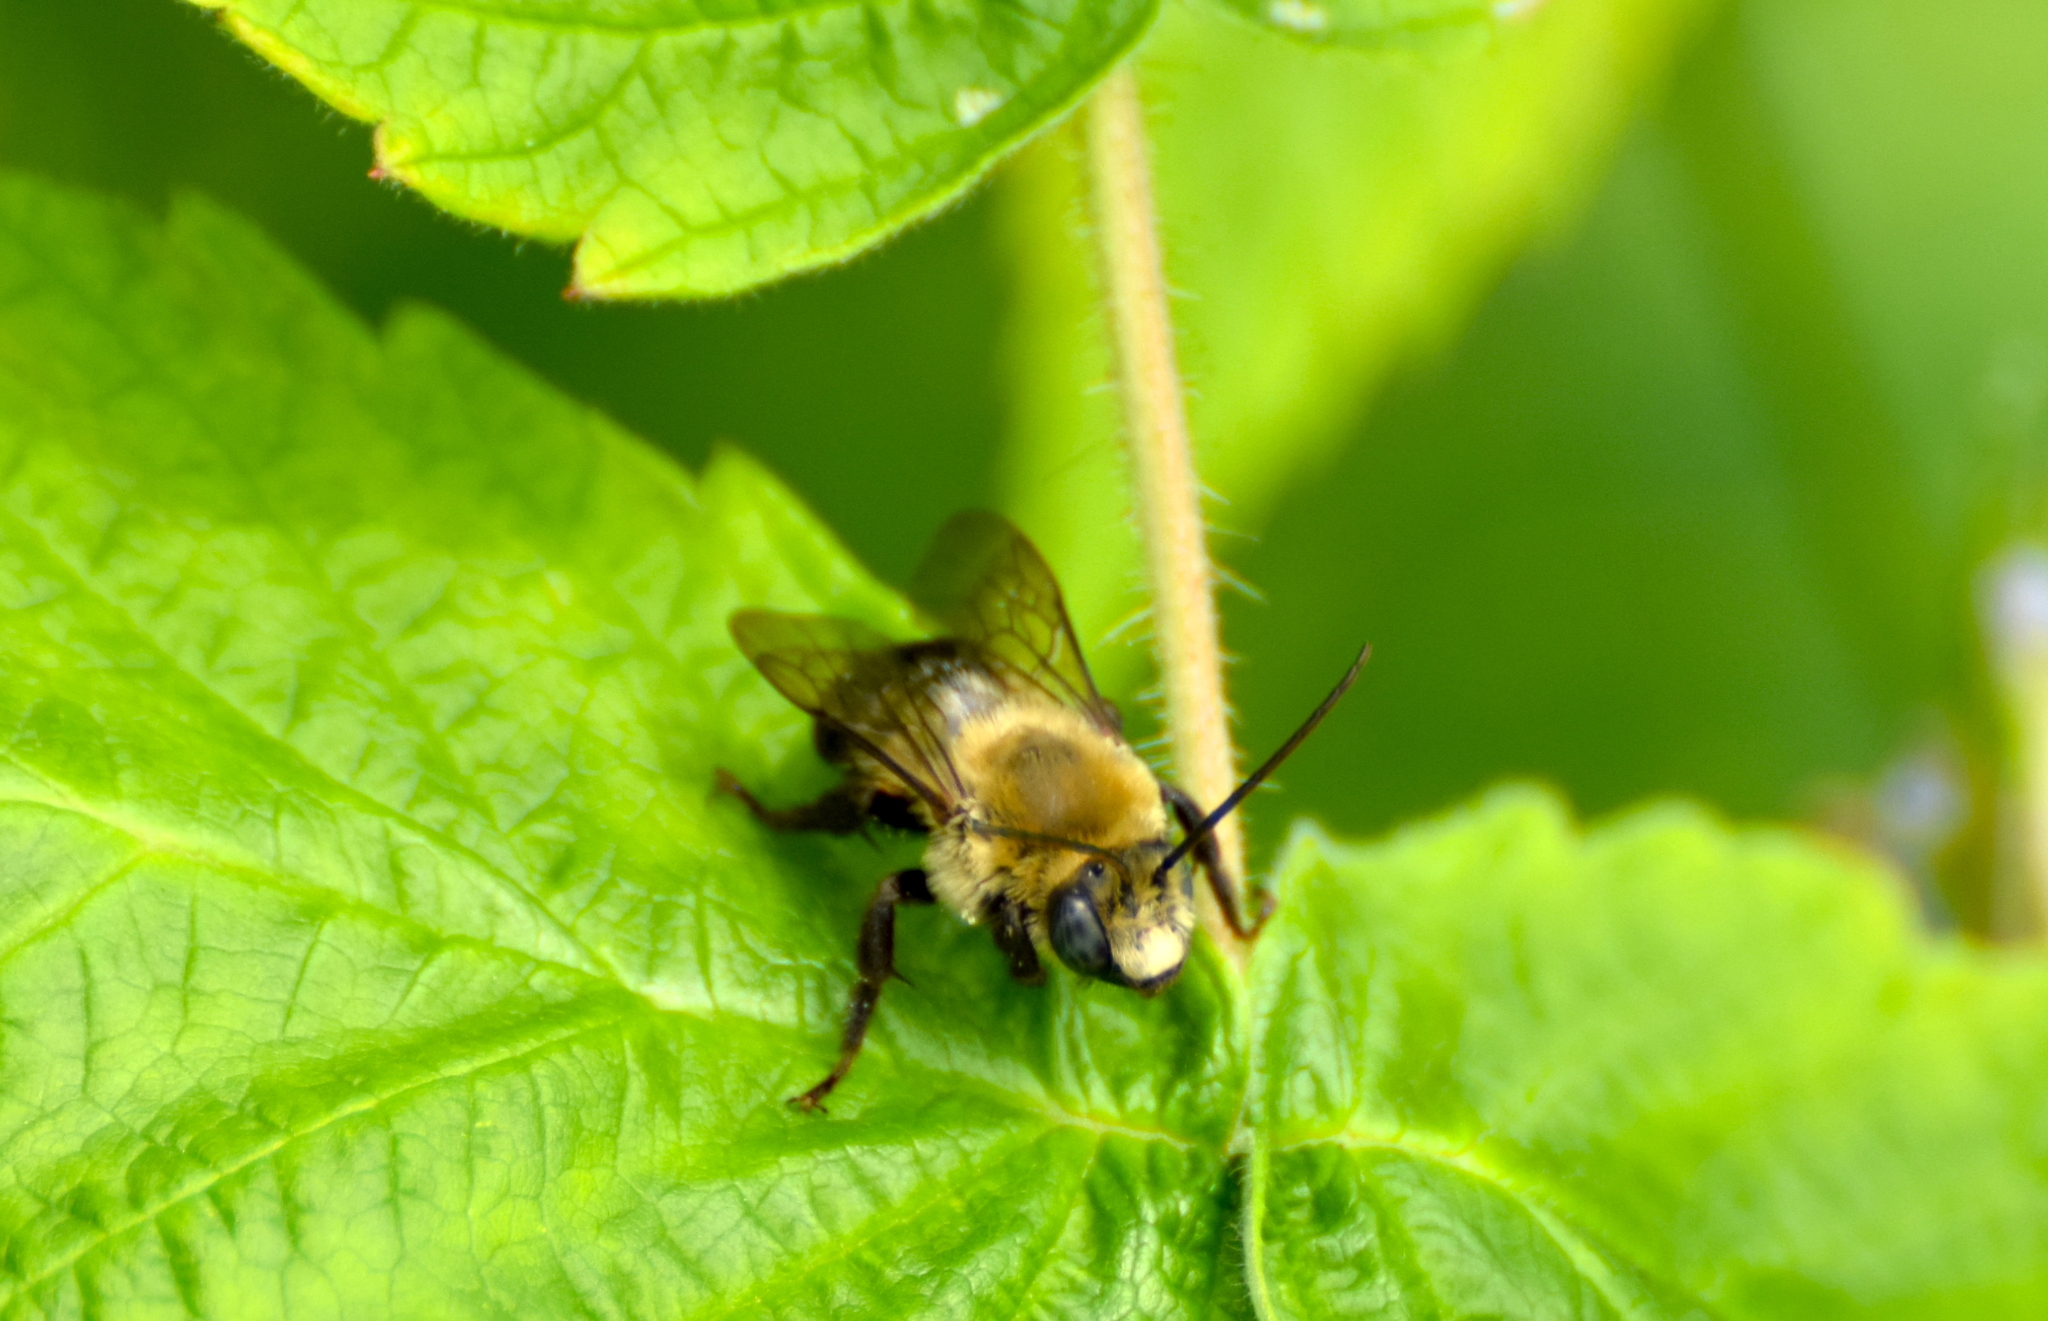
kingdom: Animalia
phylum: Arthropoda
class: Insecta
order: Hymenoptera
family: Apidae
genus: Melissodes
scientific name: Melissodes desponsus
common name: Thistle long-horned bee
